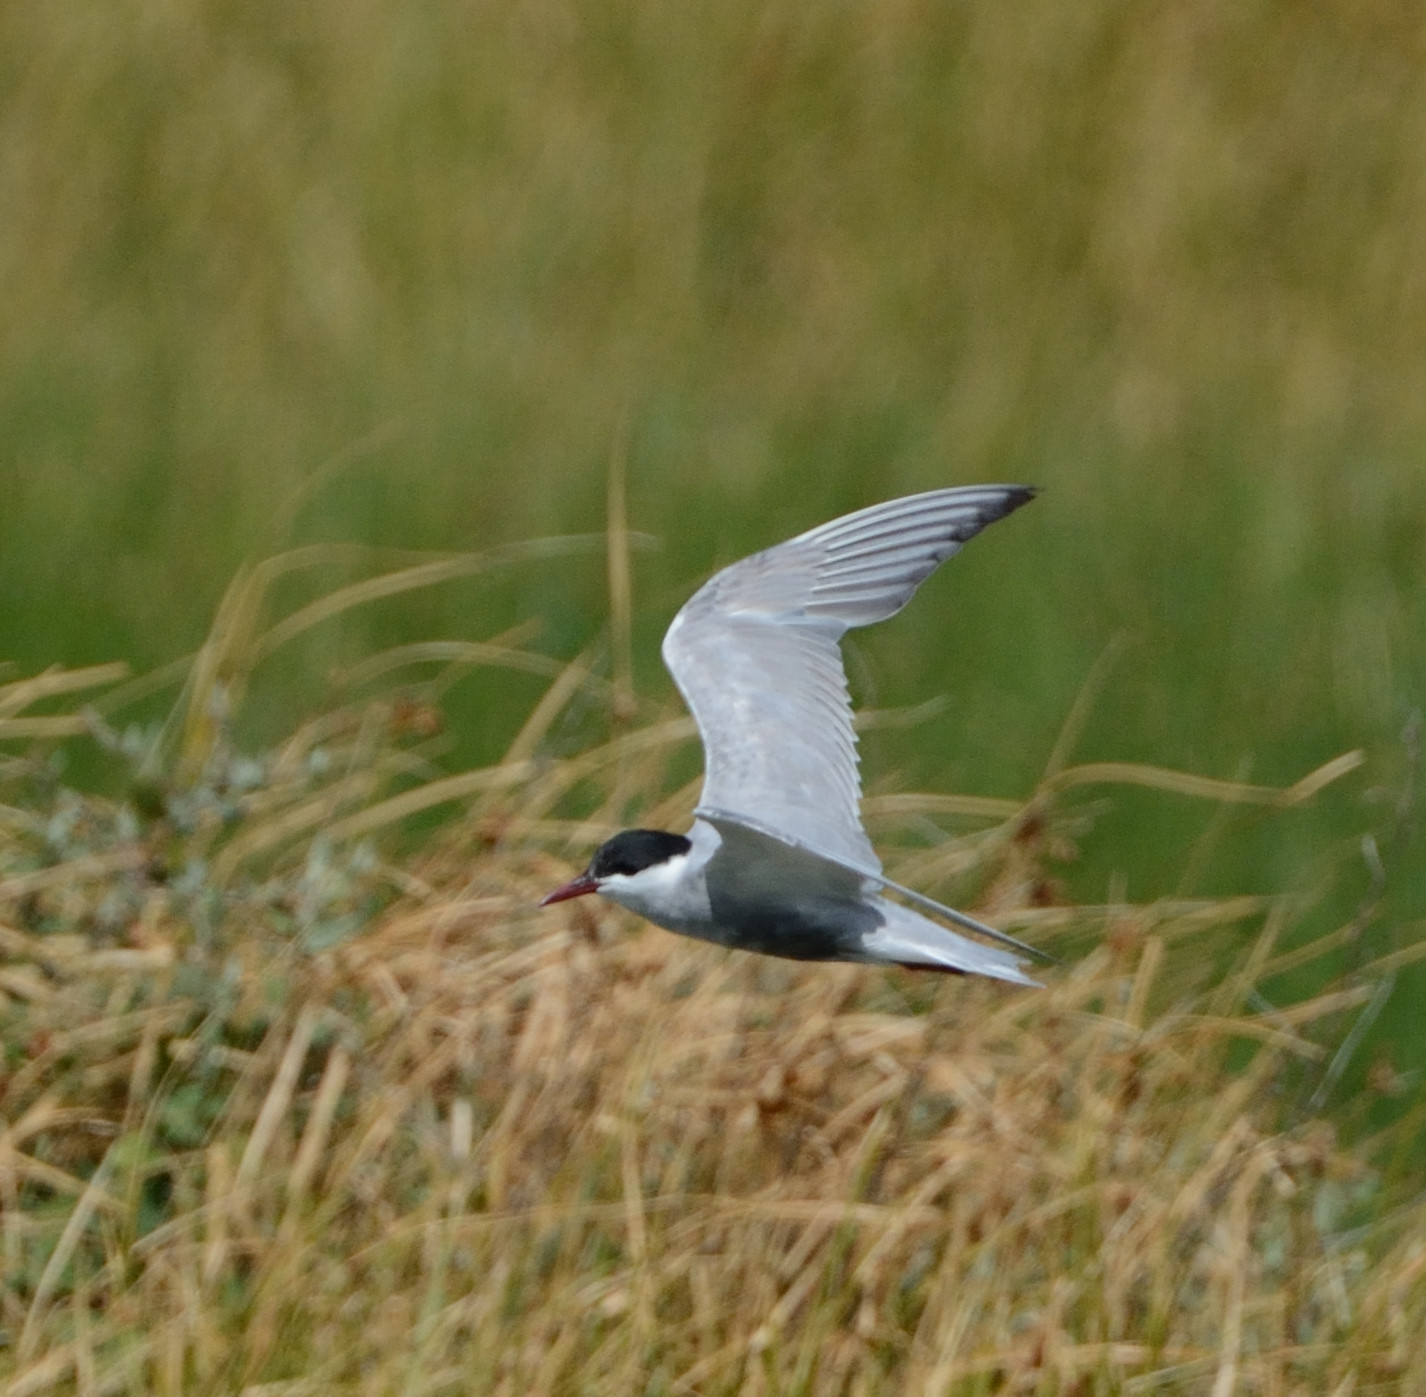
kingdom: Animalia
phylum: Chordata
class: Aves
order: Charadriiformes
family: Laridae
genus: Chlidonias
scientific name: Chlidonias hybrida
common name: Whiskered tern
